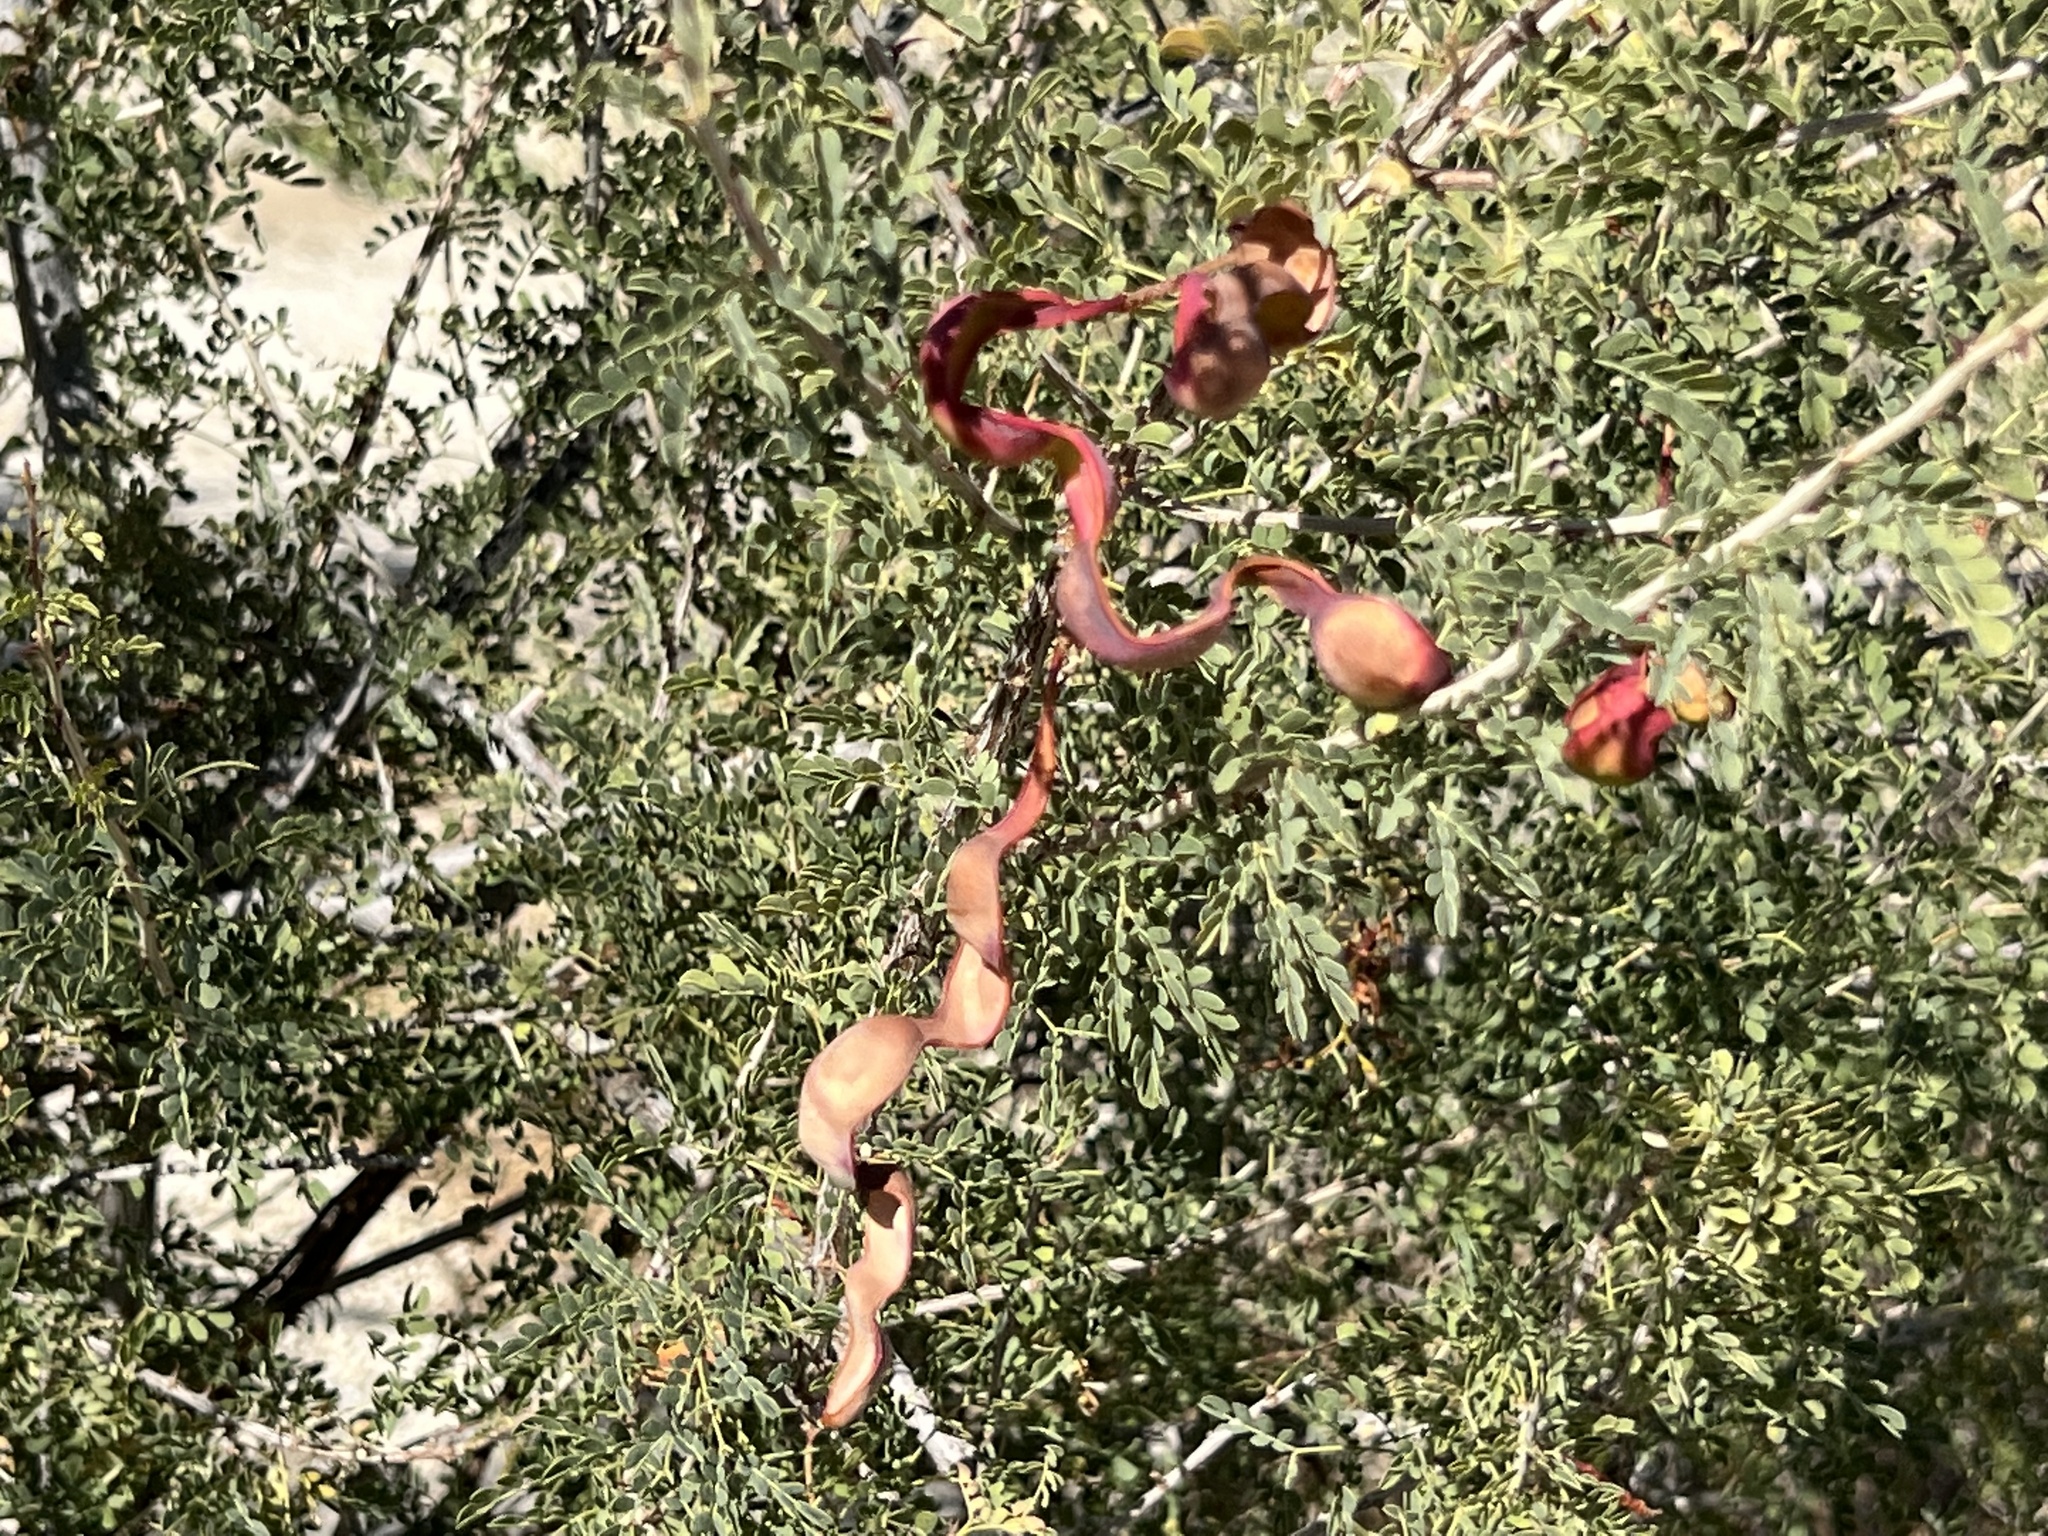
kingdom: Plantae
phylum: Tracheophyta
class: Magnoliopsida
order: Fabales
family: Fabaceae
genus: Senegalia
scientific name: Senegalia greggii
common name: Texas-mimosa
